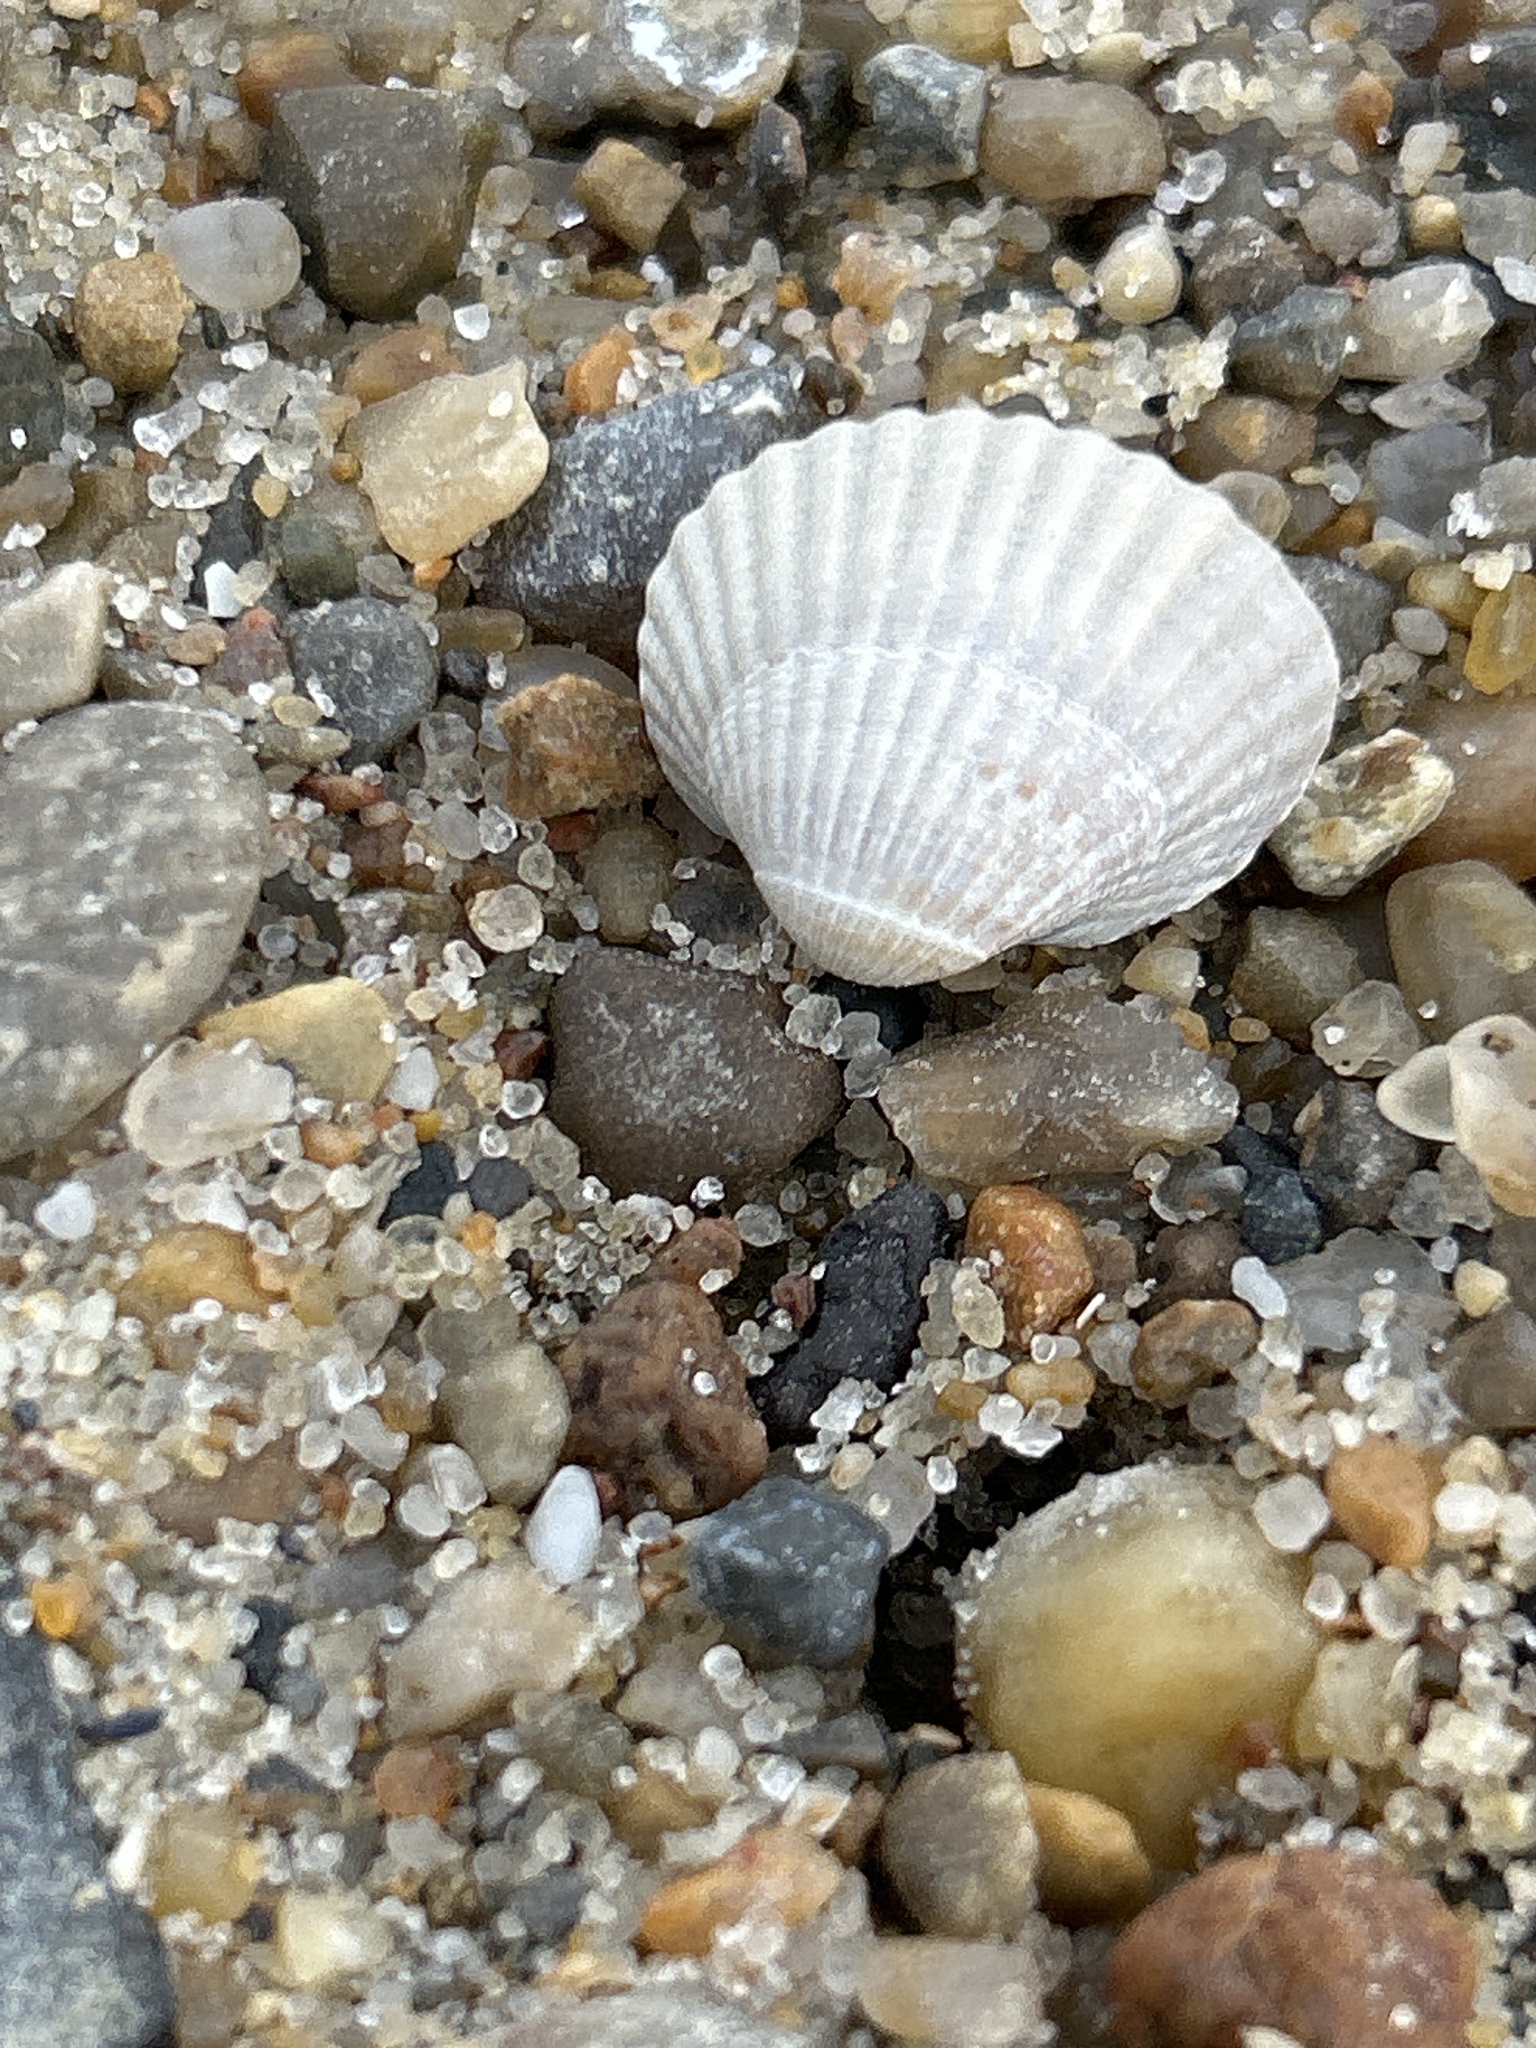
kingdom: Animalia
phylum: Mollusca
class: Bivalvia
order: Cardiida
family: Cardiidae
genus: Cerastoderma
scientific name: Cerastoderma edule
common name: Common cockle
